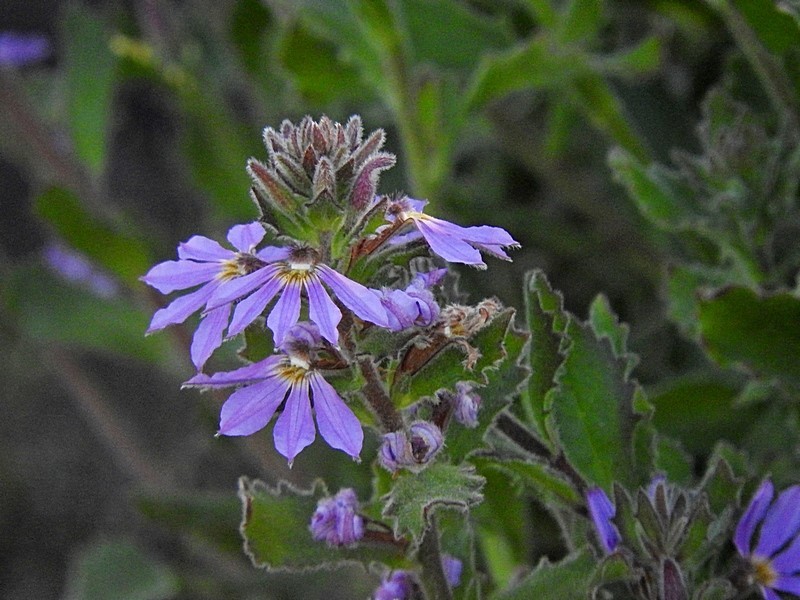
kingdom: Plantae
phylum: Tracheophyta
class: Magnoliopsida
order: Asterales
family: Goodeniaceae
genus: Scaevola
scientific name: Scaevola aemula
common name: Common fanflower
